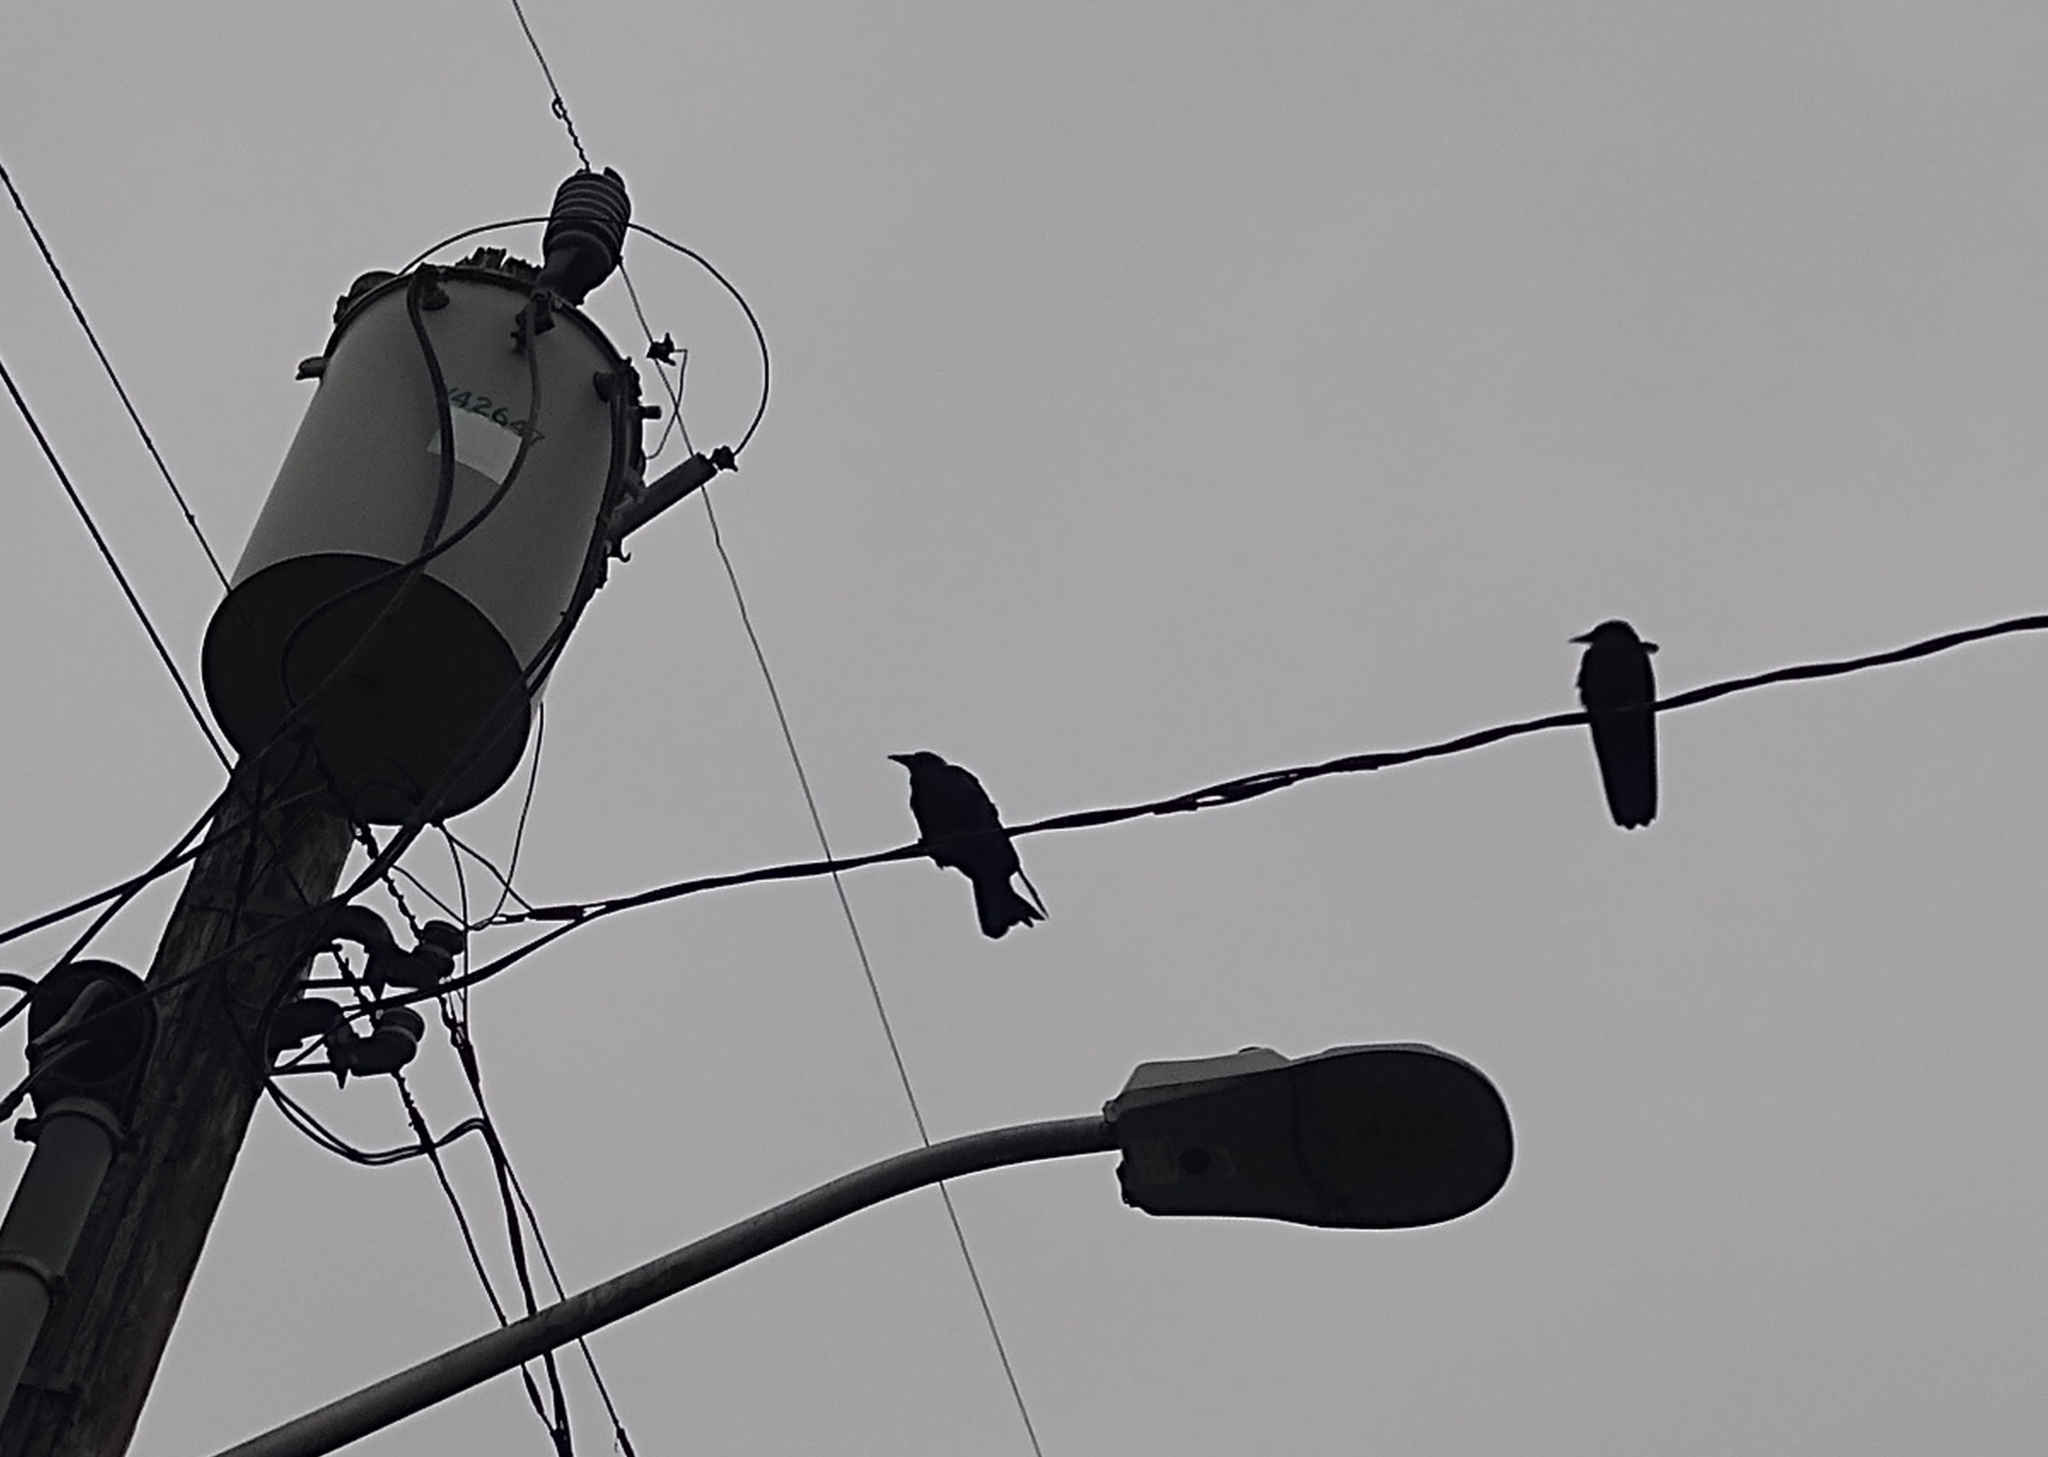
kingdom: Animalia
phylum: Chordata
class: Aves
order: Passeriformes
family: Corvidae
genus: Corvus
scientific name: Corvus brachyrhynchos
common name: American crow
